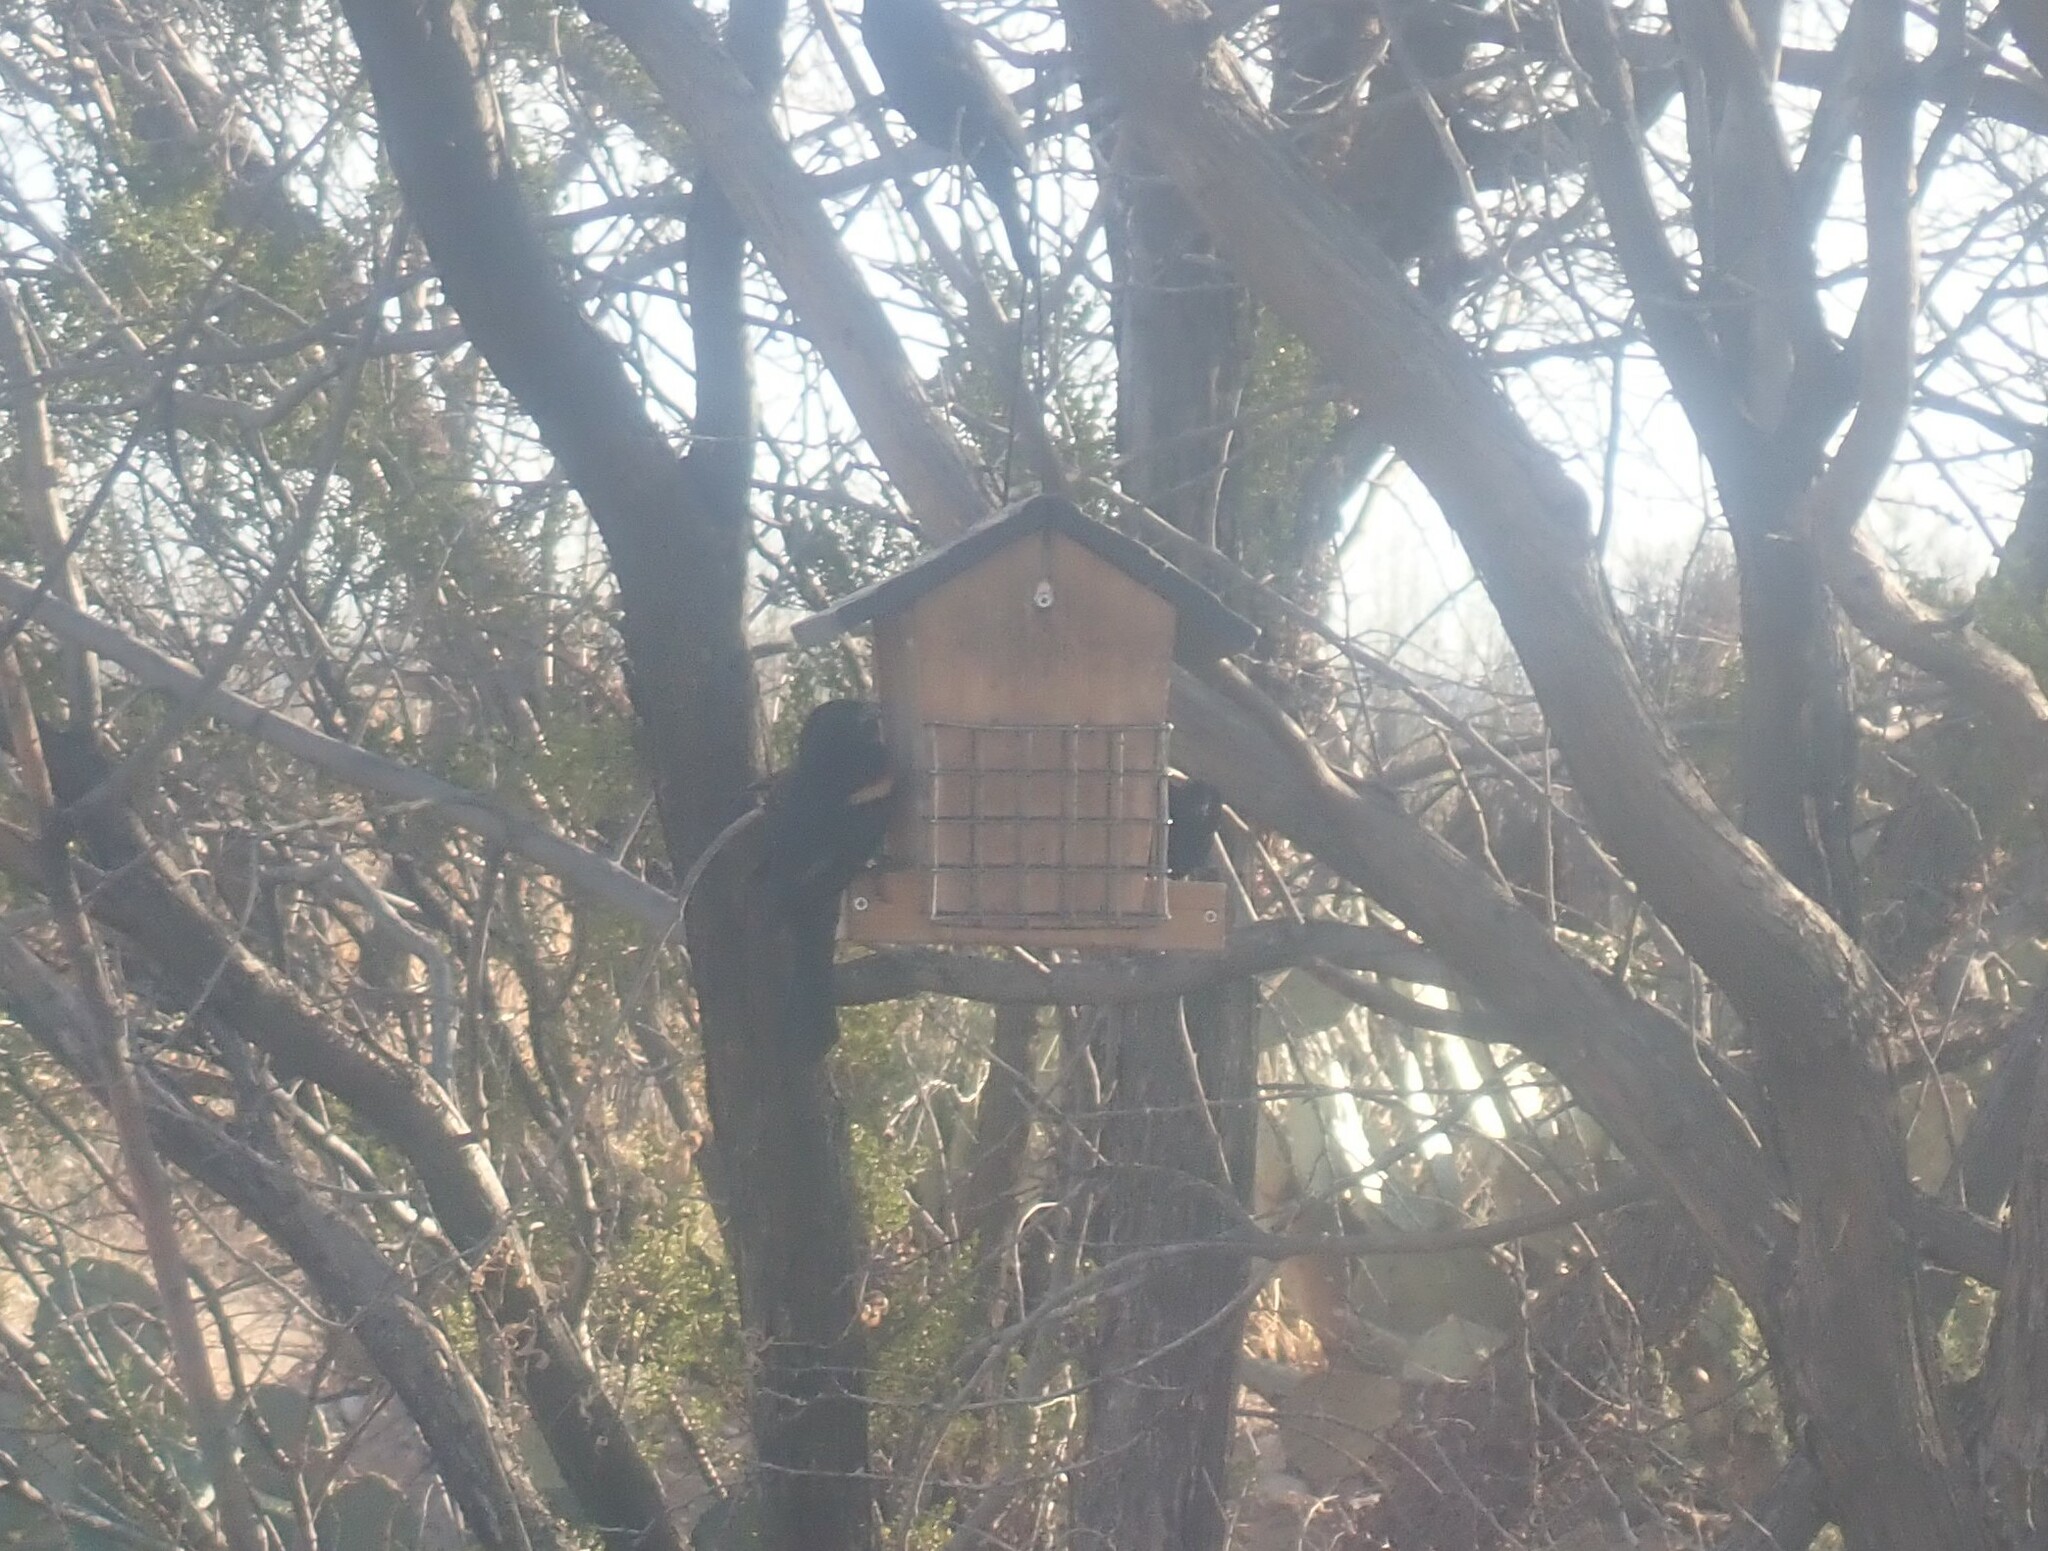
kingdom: Animalia
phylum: Chordata
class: Aves
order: Passeriformes
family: Icteridae
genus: Agelaius
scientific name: Agelaius phoeniceus
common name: Red-winged blackbird
